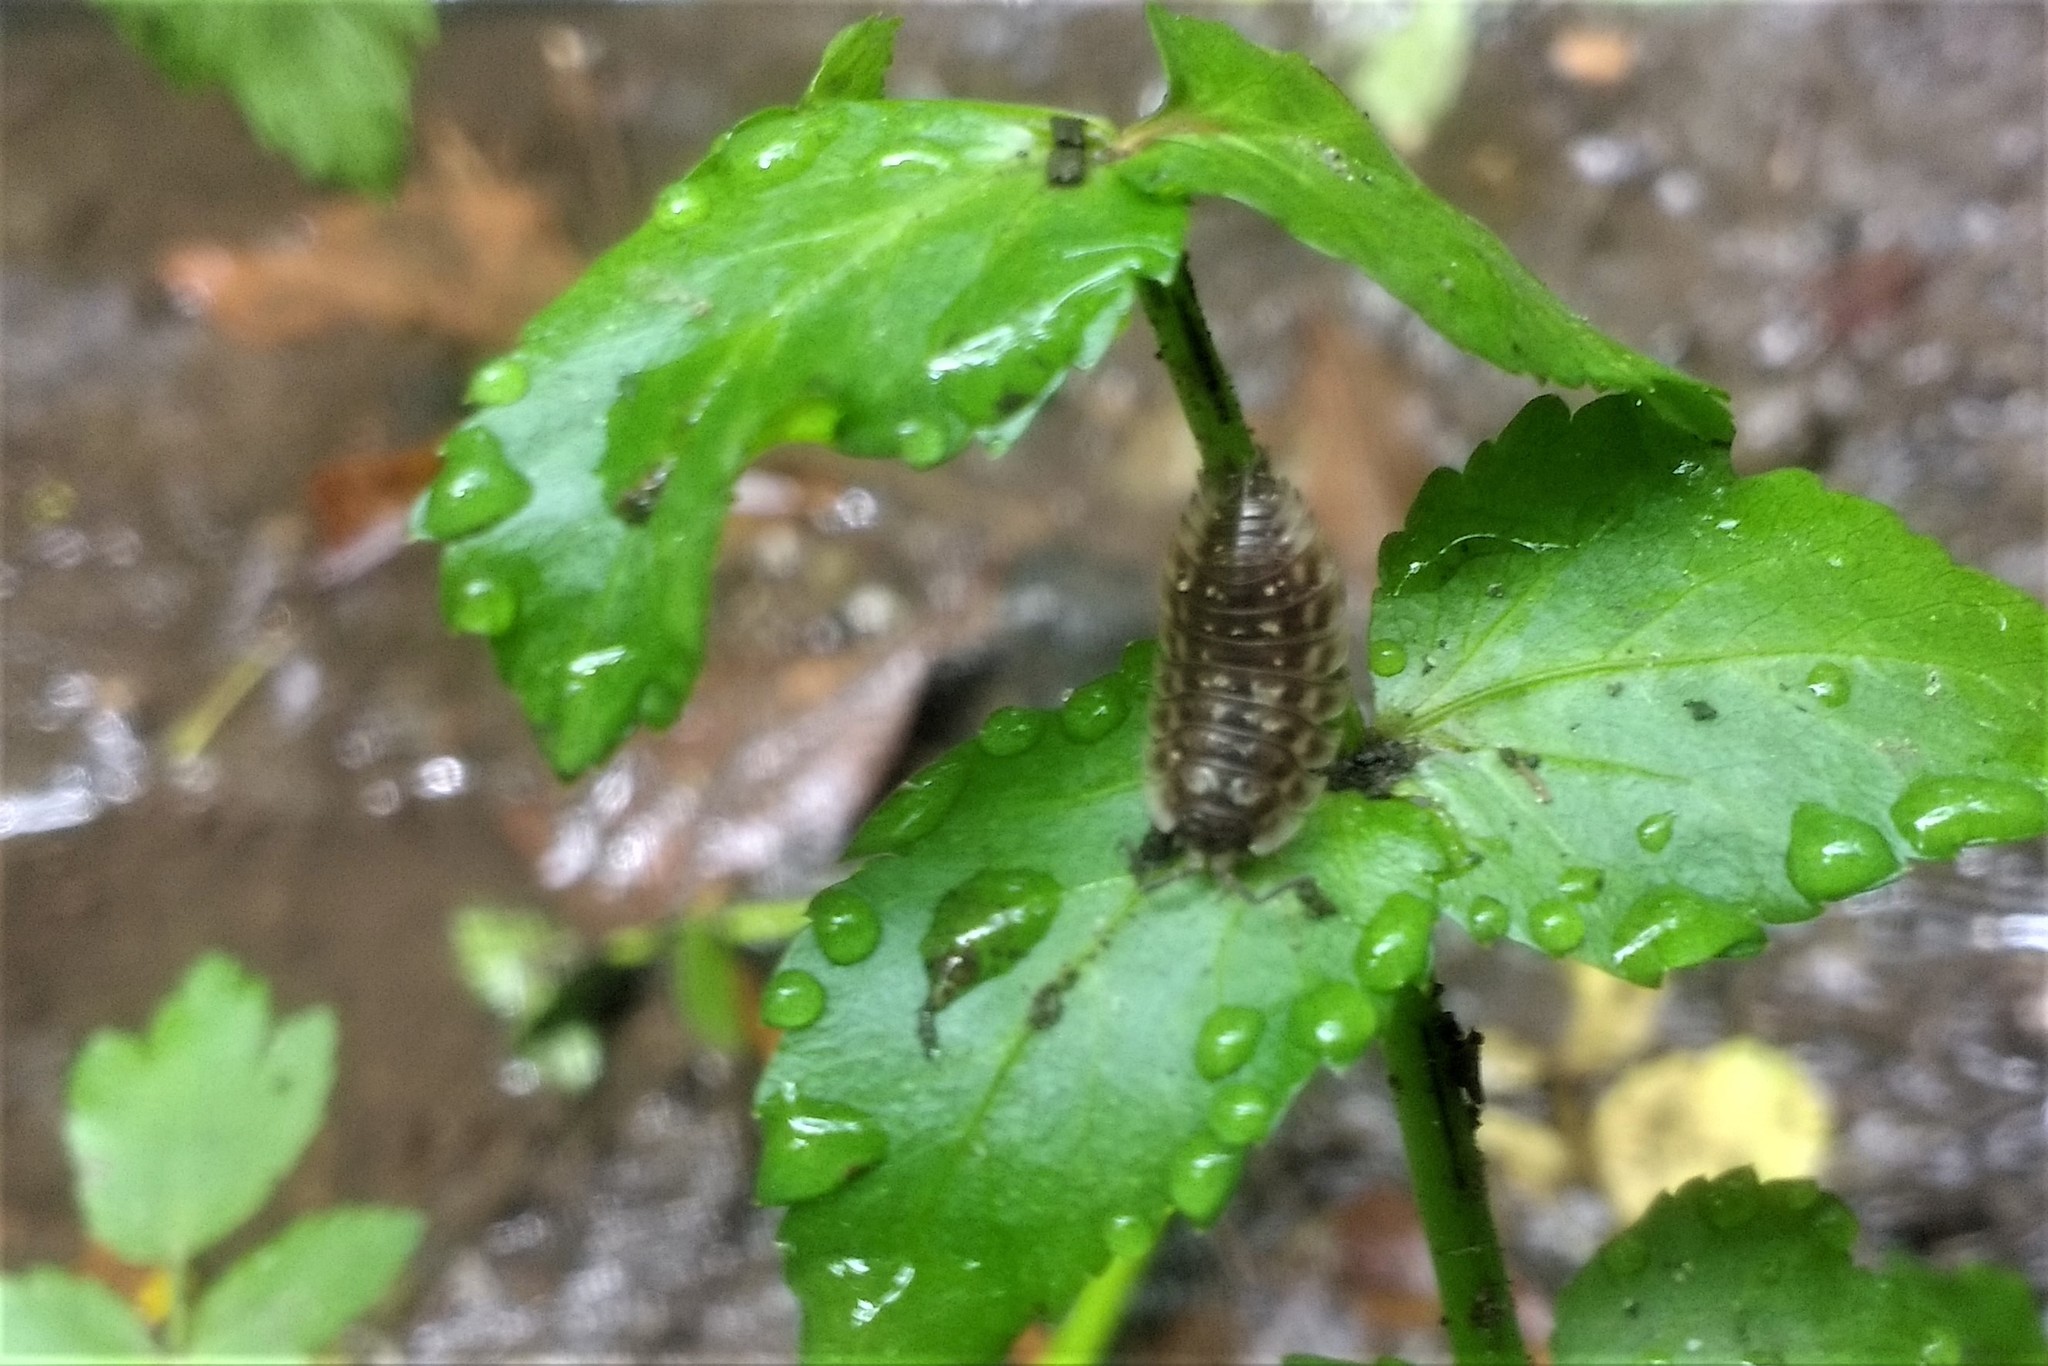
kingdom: Animalia
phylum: Arthropoda
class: Malacostraca
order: Isopoda
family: Oniscidae
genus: Oniscus
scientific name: Oniscus asellus
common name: Common shiny woodlouse
